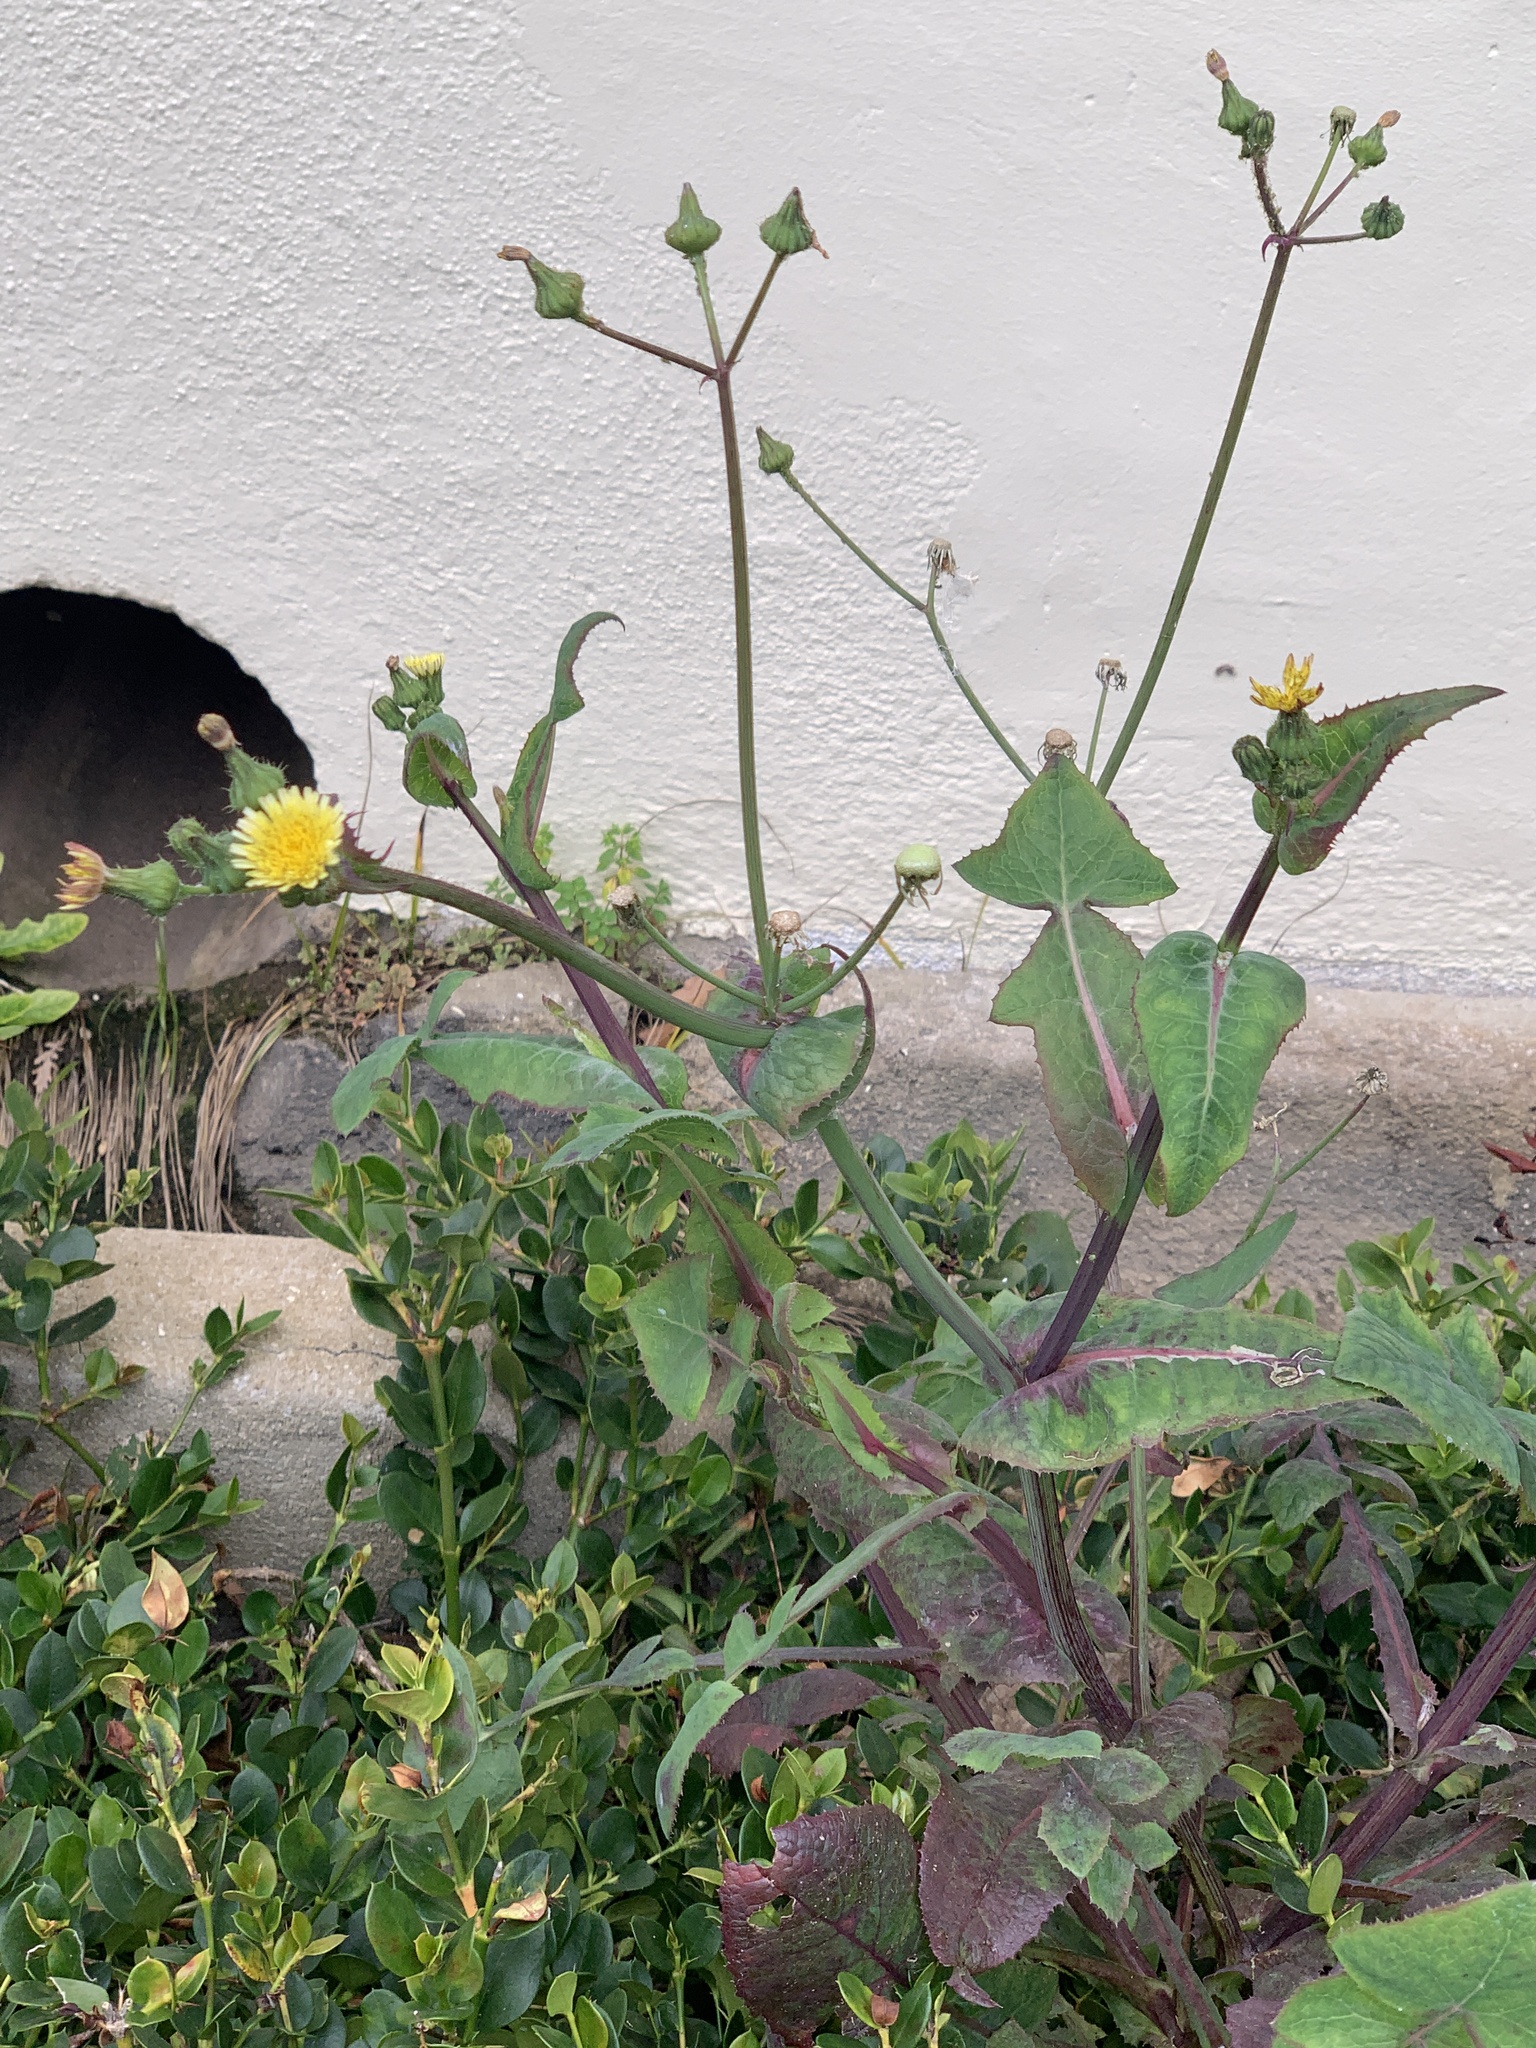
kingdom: Plantae
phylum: Tracheophyta
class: Magnoliopsida
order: Asterales
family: Asteraceae
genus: Sonchus
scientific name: Sonchus oleraceus
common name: Common sowthistle
